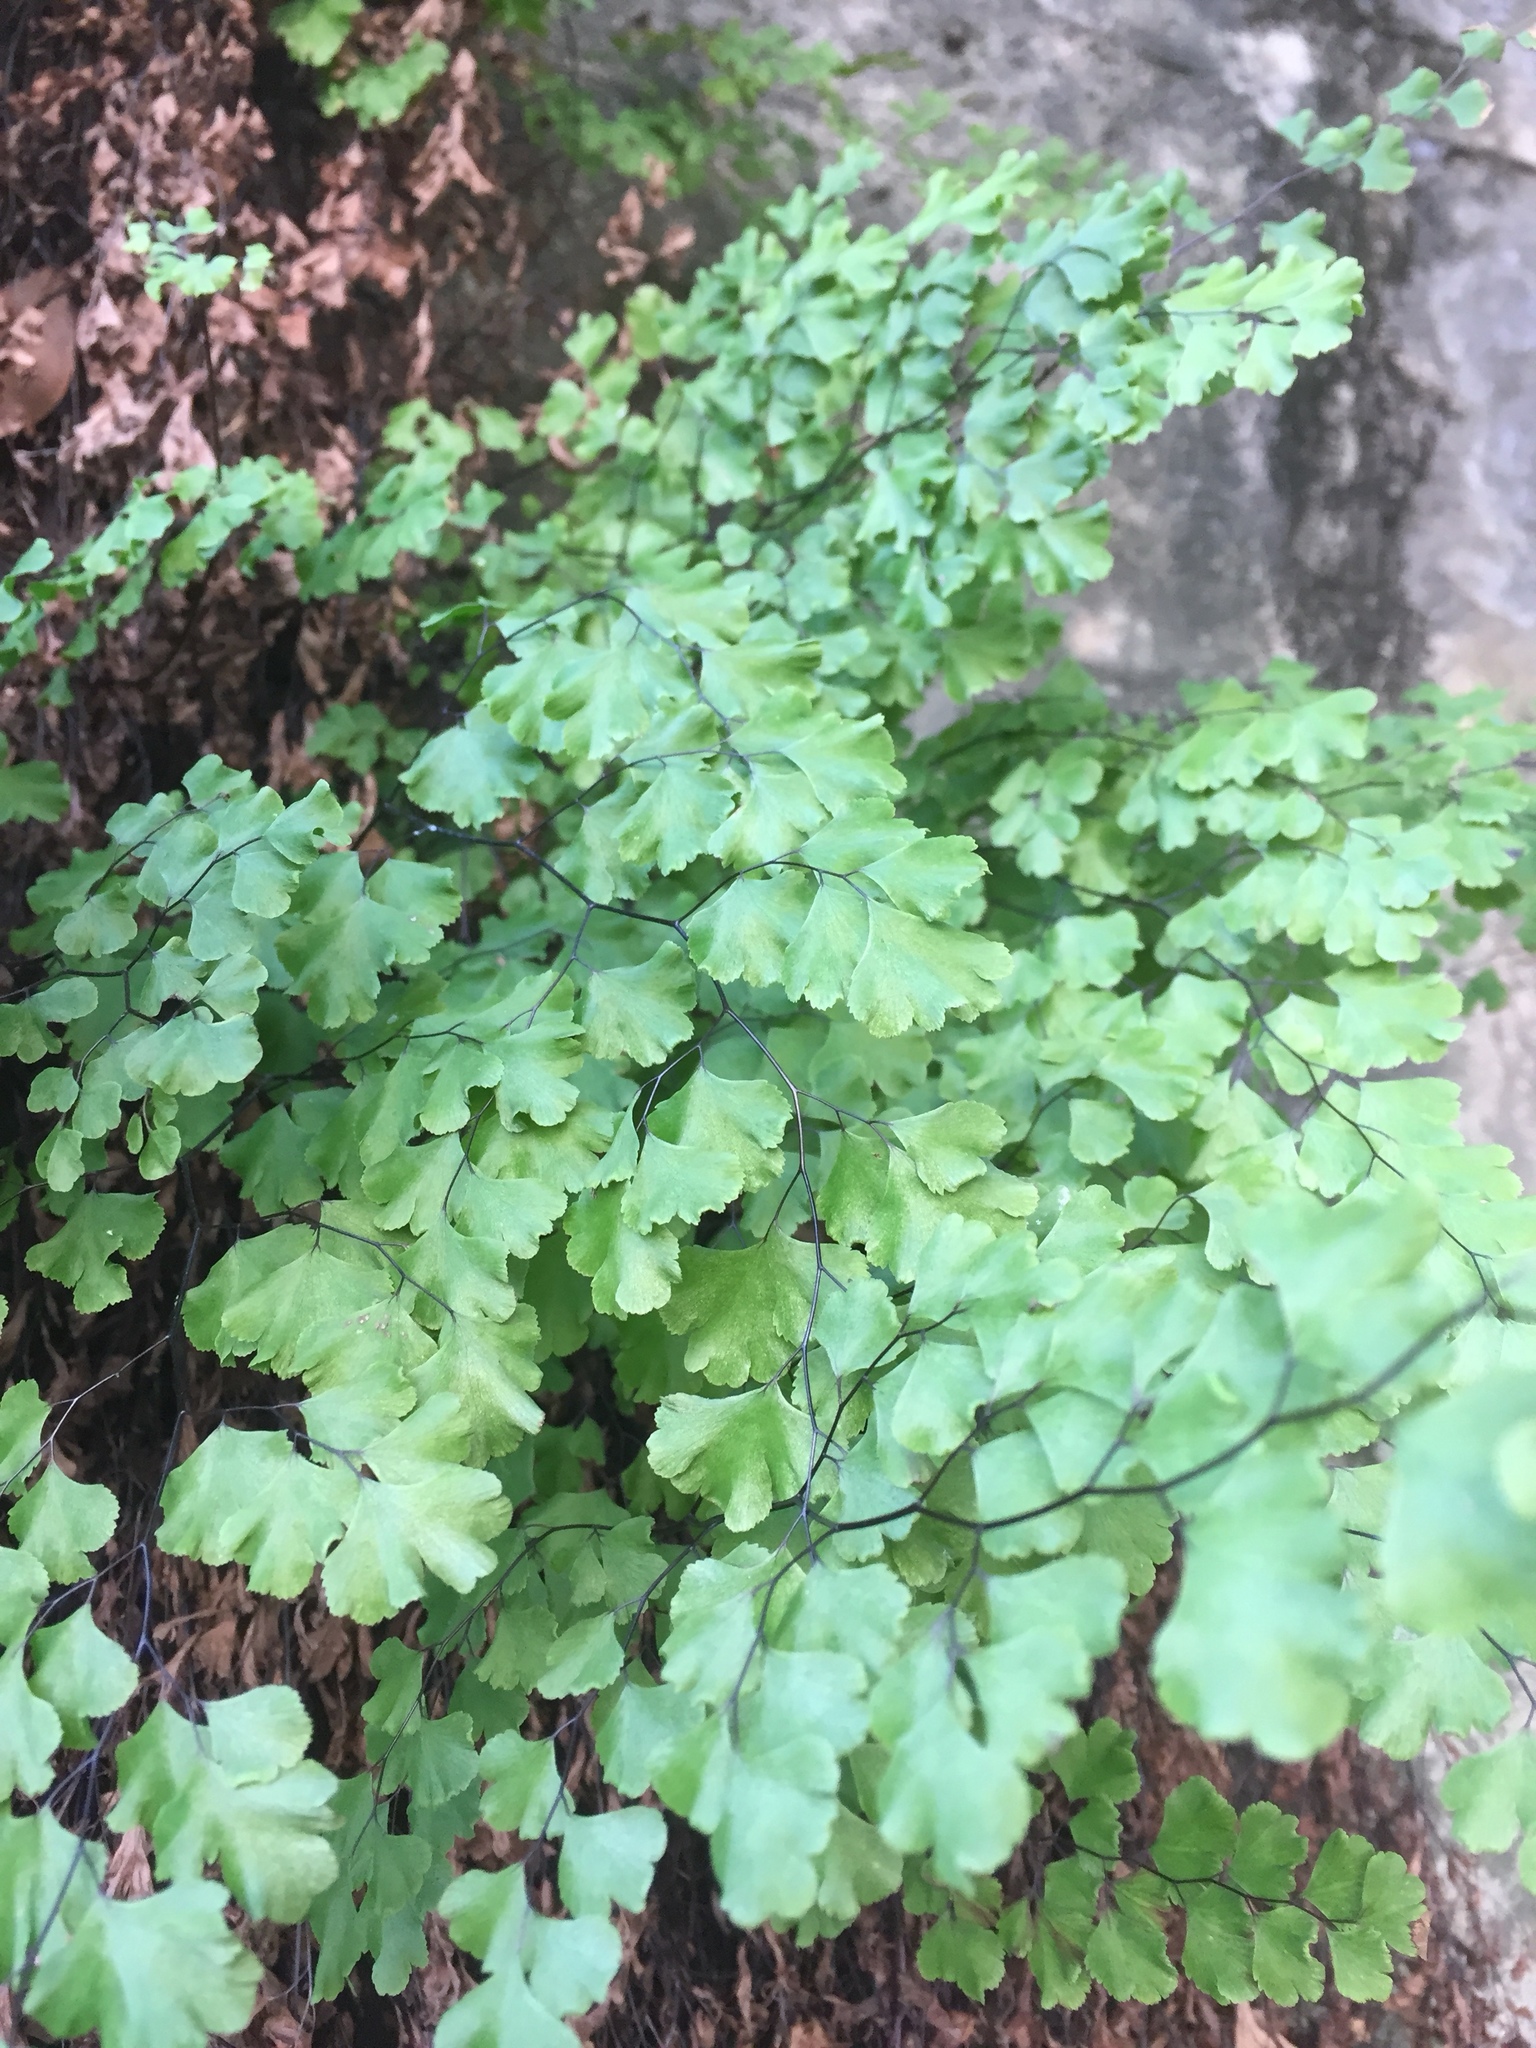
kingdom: Plantae
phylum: Tracheophyta
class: Polypodiopsida
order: Polypodiales
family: Pteridaceae
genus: Adiantum
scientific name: Adiantum capillus-veneris
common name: Maidenhair fern
